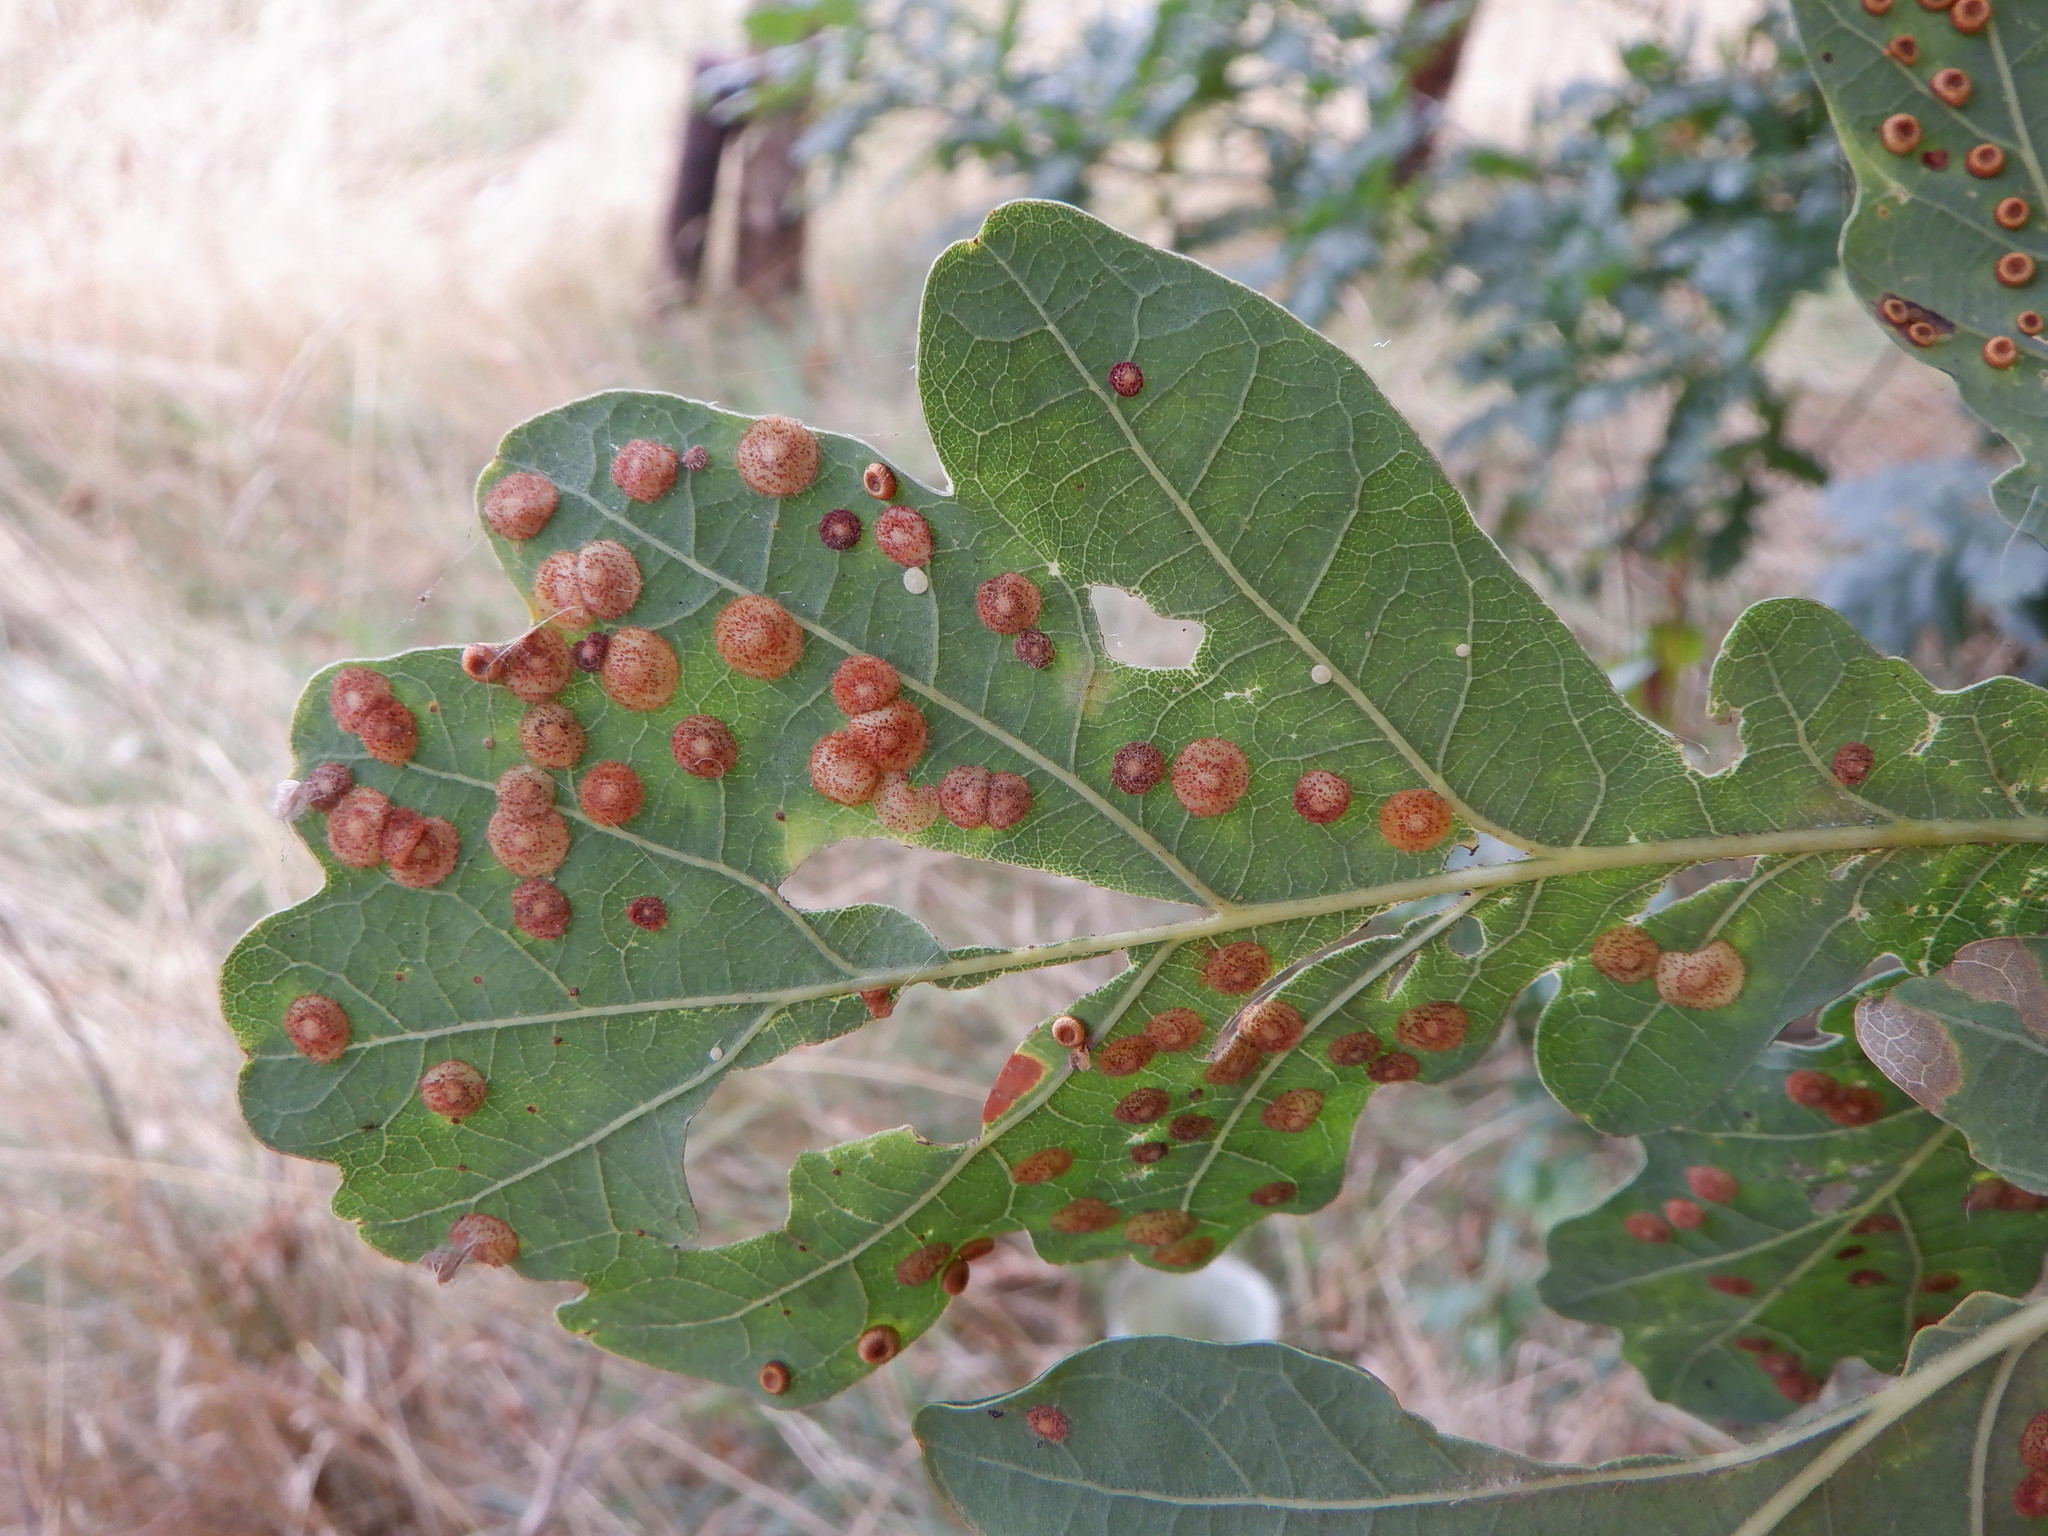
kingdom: Animalia
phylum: Arthropoda
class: Insecta
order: Hymenoptera
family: Cynipidae
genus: Neuroterus
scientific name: Neuroterus quercusbaccarum
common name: Common spangle gall
